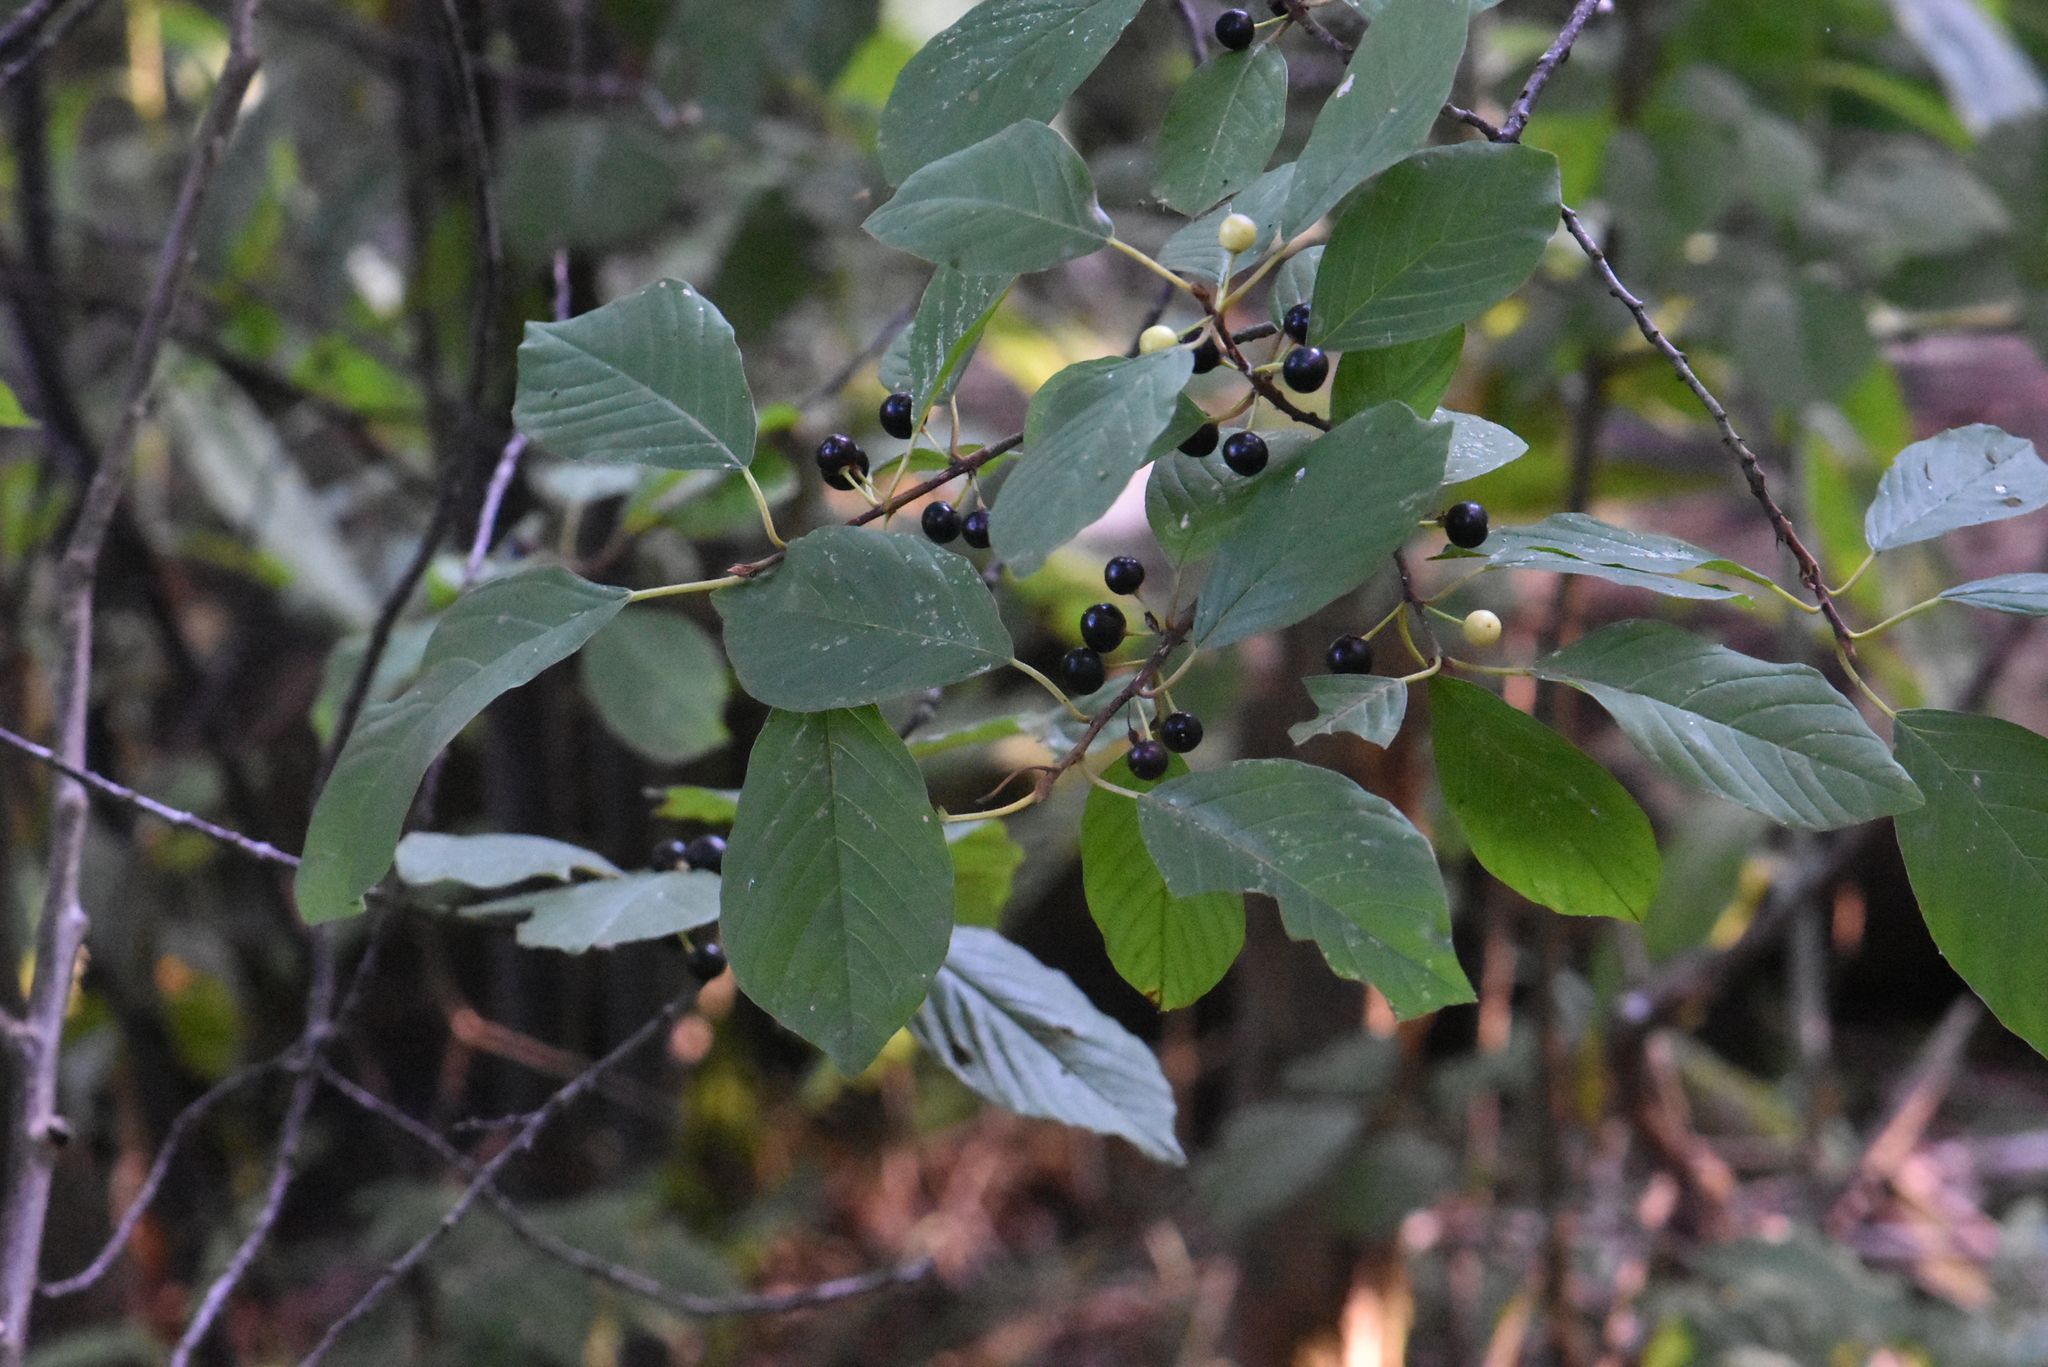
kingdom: Plantae
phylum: Tracheophyta
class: Magnoliopsida
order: Rosales
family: Rhamnaceae
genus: Frangula
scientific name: Frangula alnus
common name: Alder buckthorn
